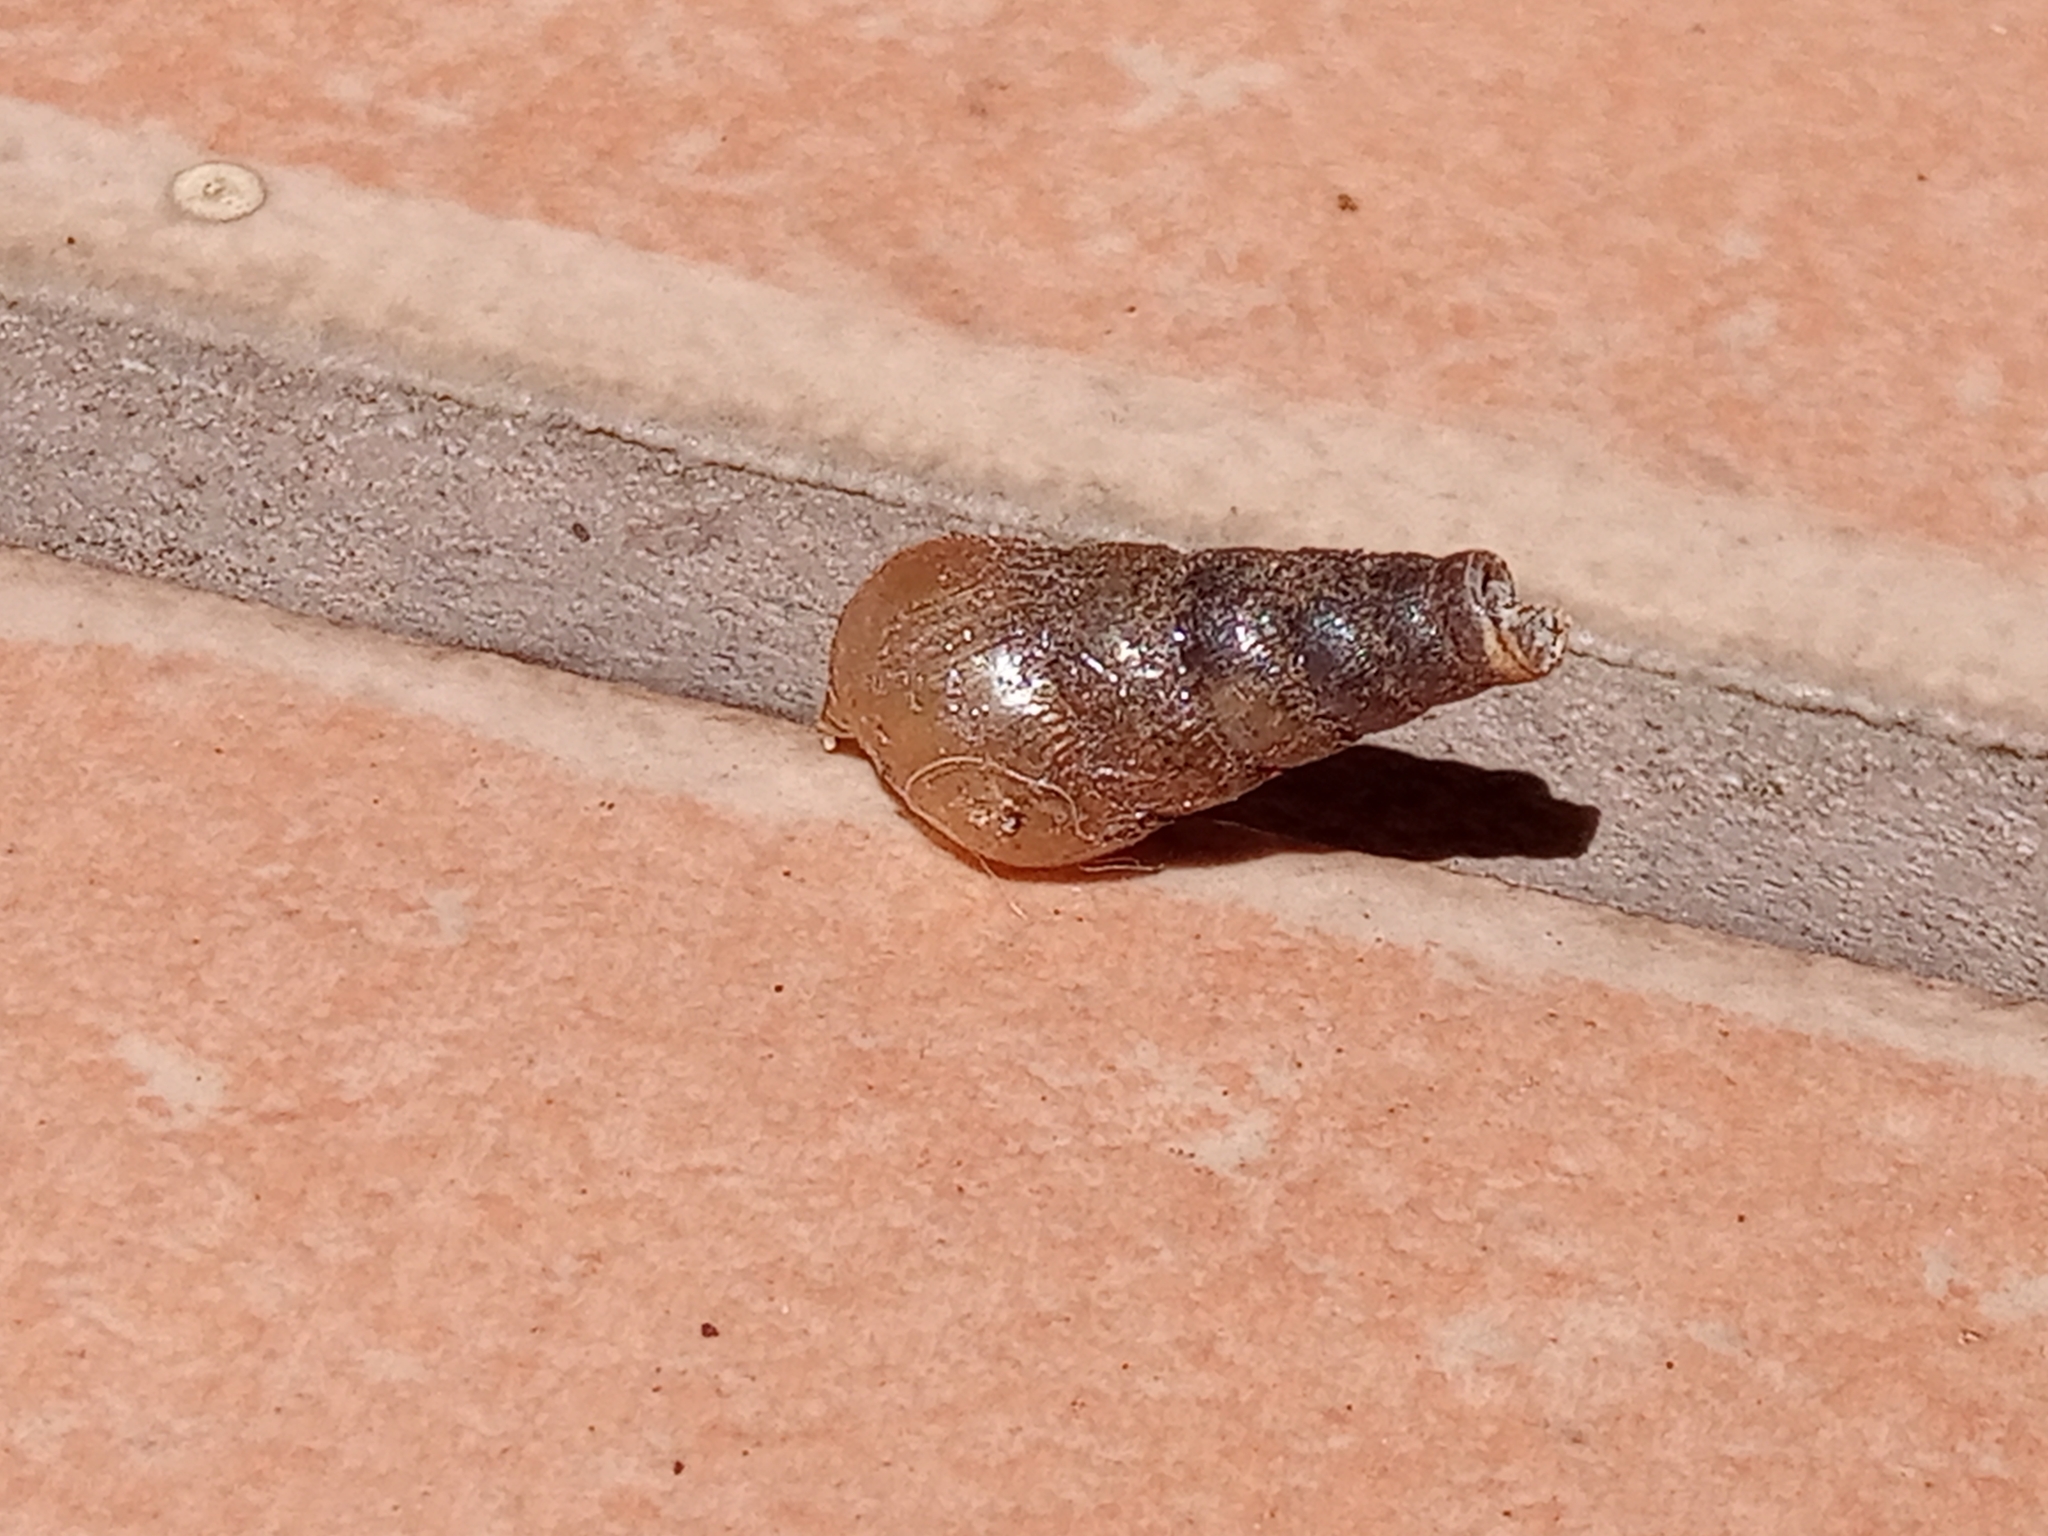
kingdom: Animalia
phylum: Mollusca
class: Gastropoda
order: Stylommatophora
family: Achatinidae
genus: Rumina
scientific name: Rumina decollata
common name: Decollate snail
